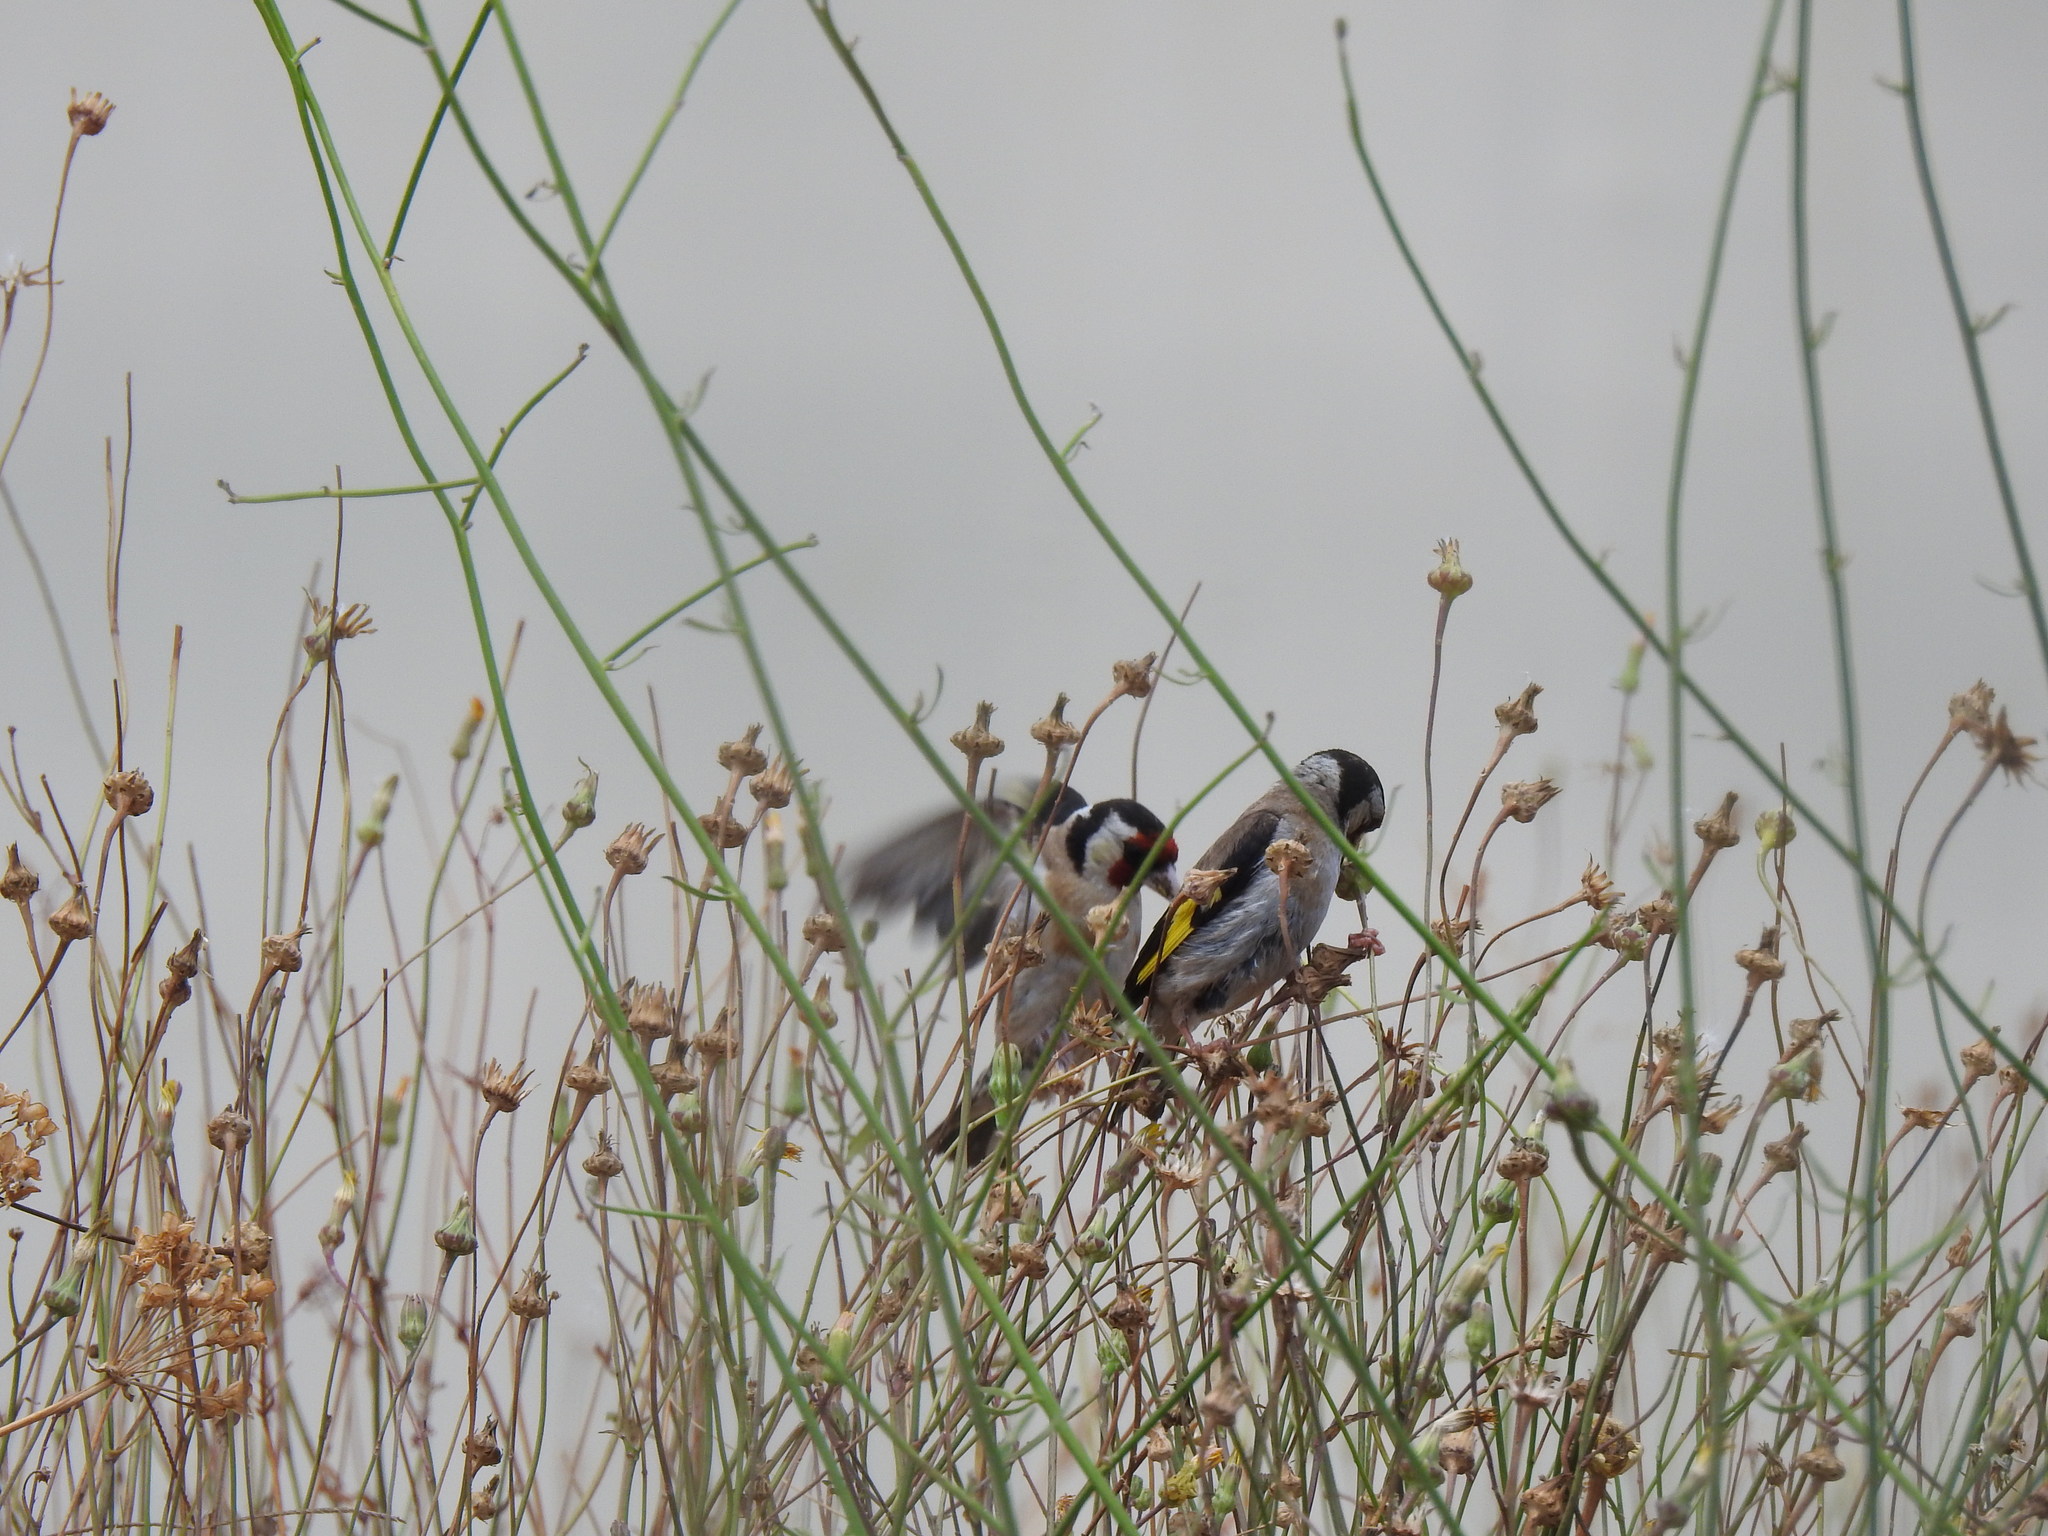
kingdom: Animalia
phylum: Chordata
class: Aves
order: Passeriformes
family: Fringillidae
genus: Carduelis
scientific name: Carduelis carduelis
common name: European goldfinch
